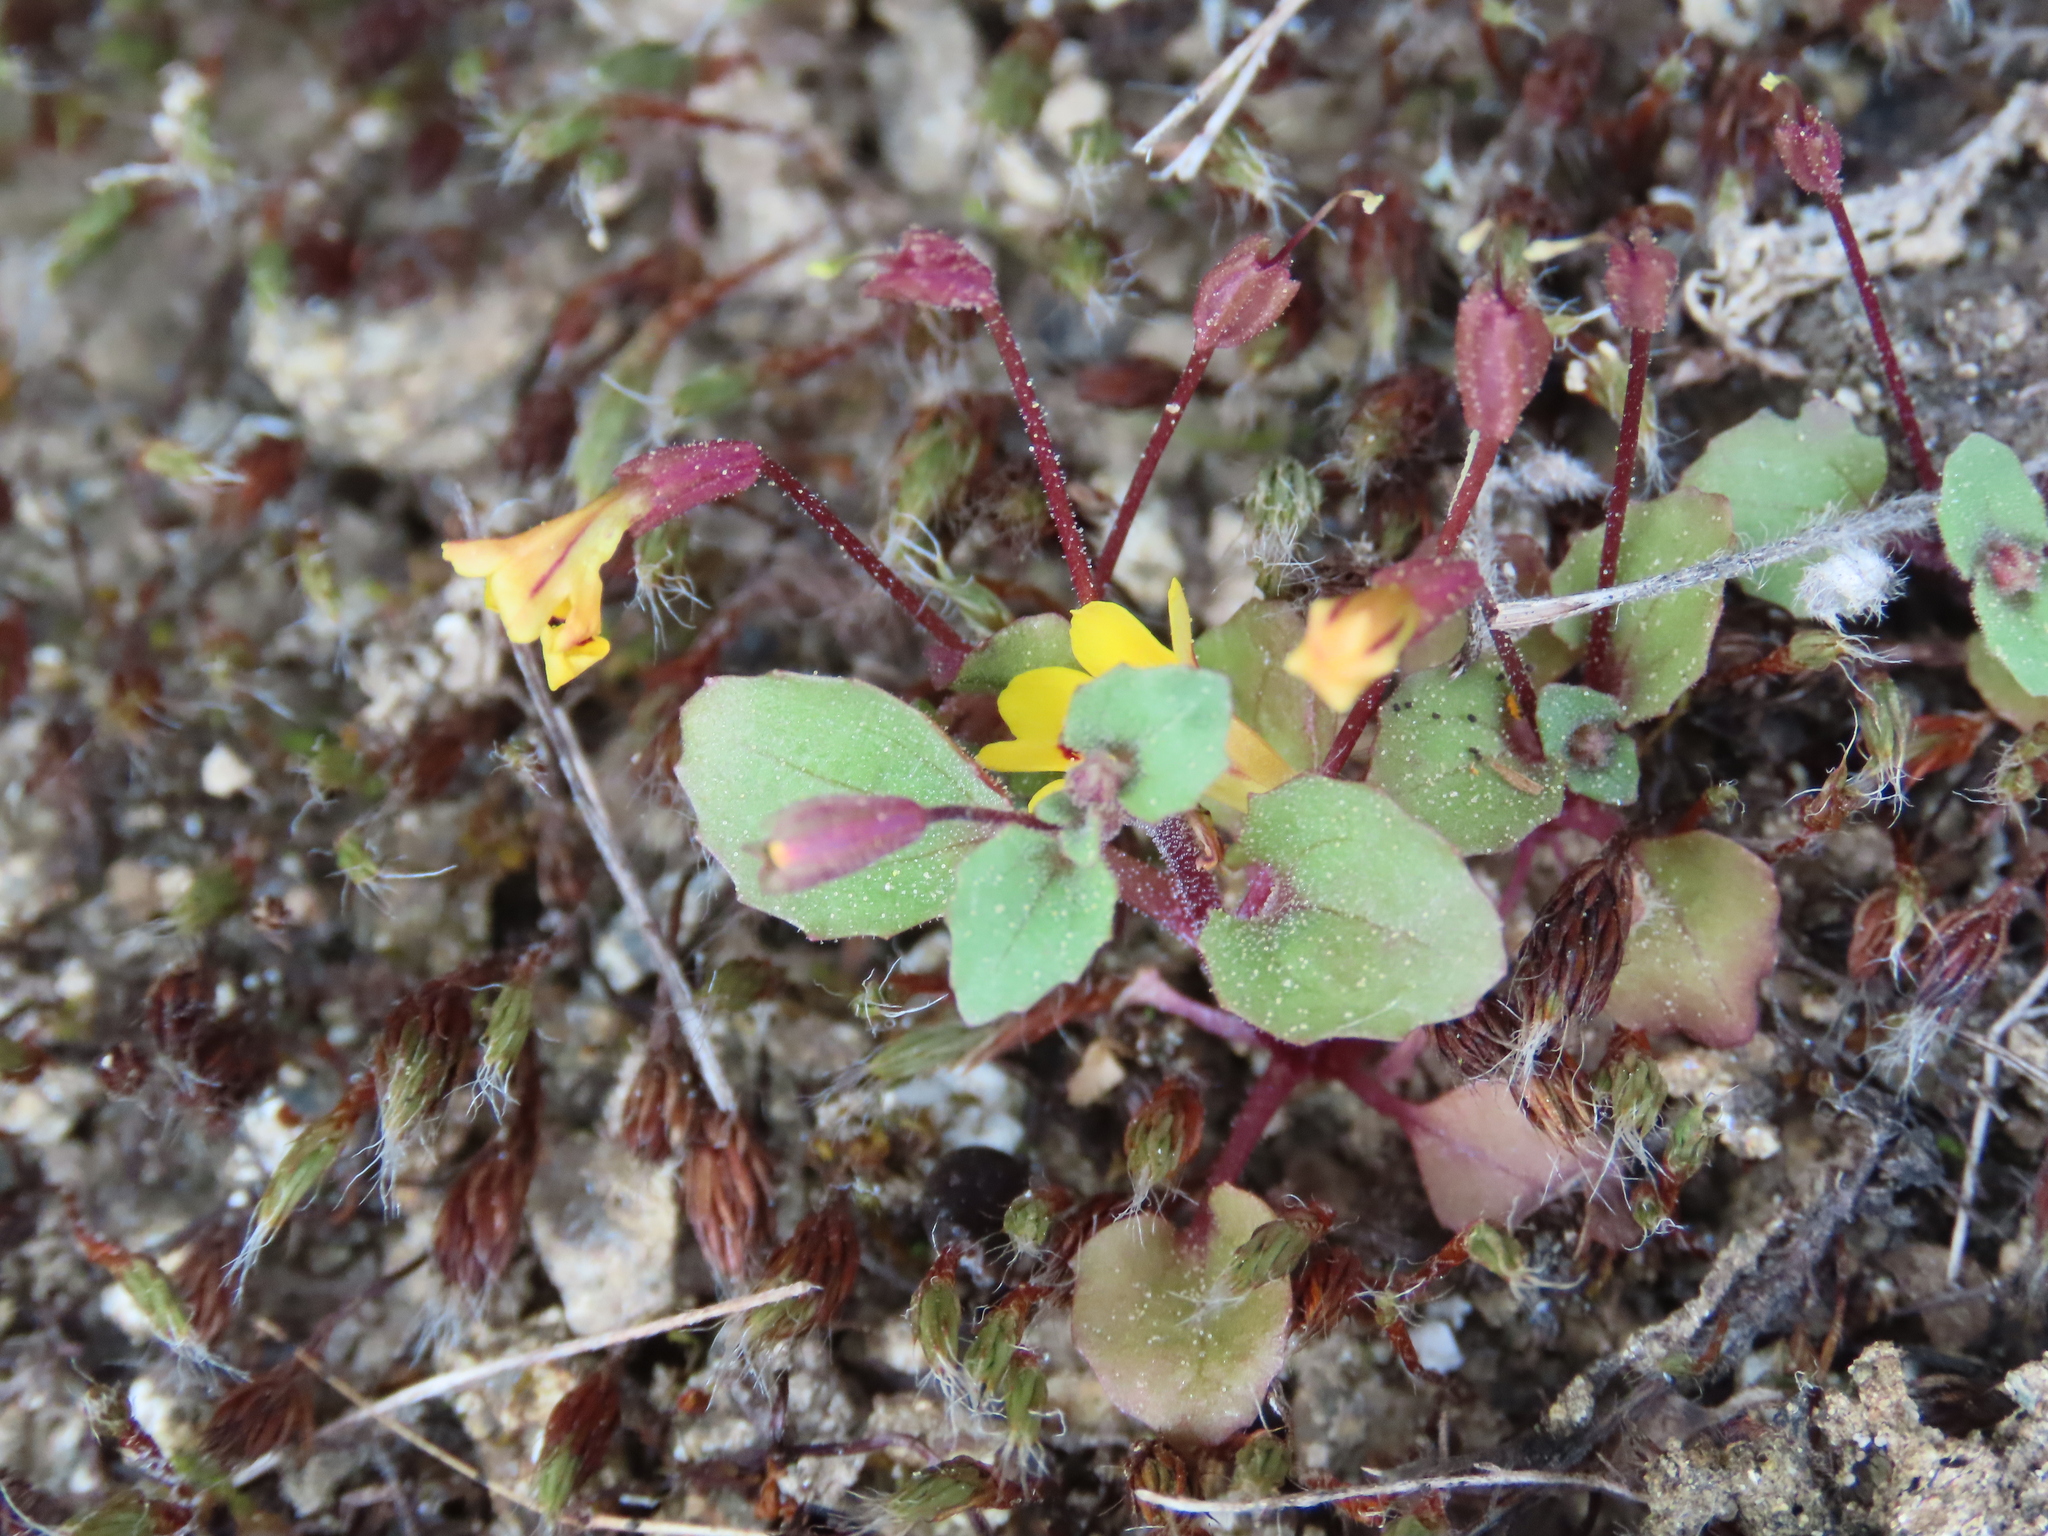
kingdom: Plantae
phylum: Tracheophyta
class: Magnoliopsida
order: Lamiales
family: Phrymaceae
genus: Erythranthe
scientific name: Erythranthe alsinoides
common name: Chickweed monkeyflower
